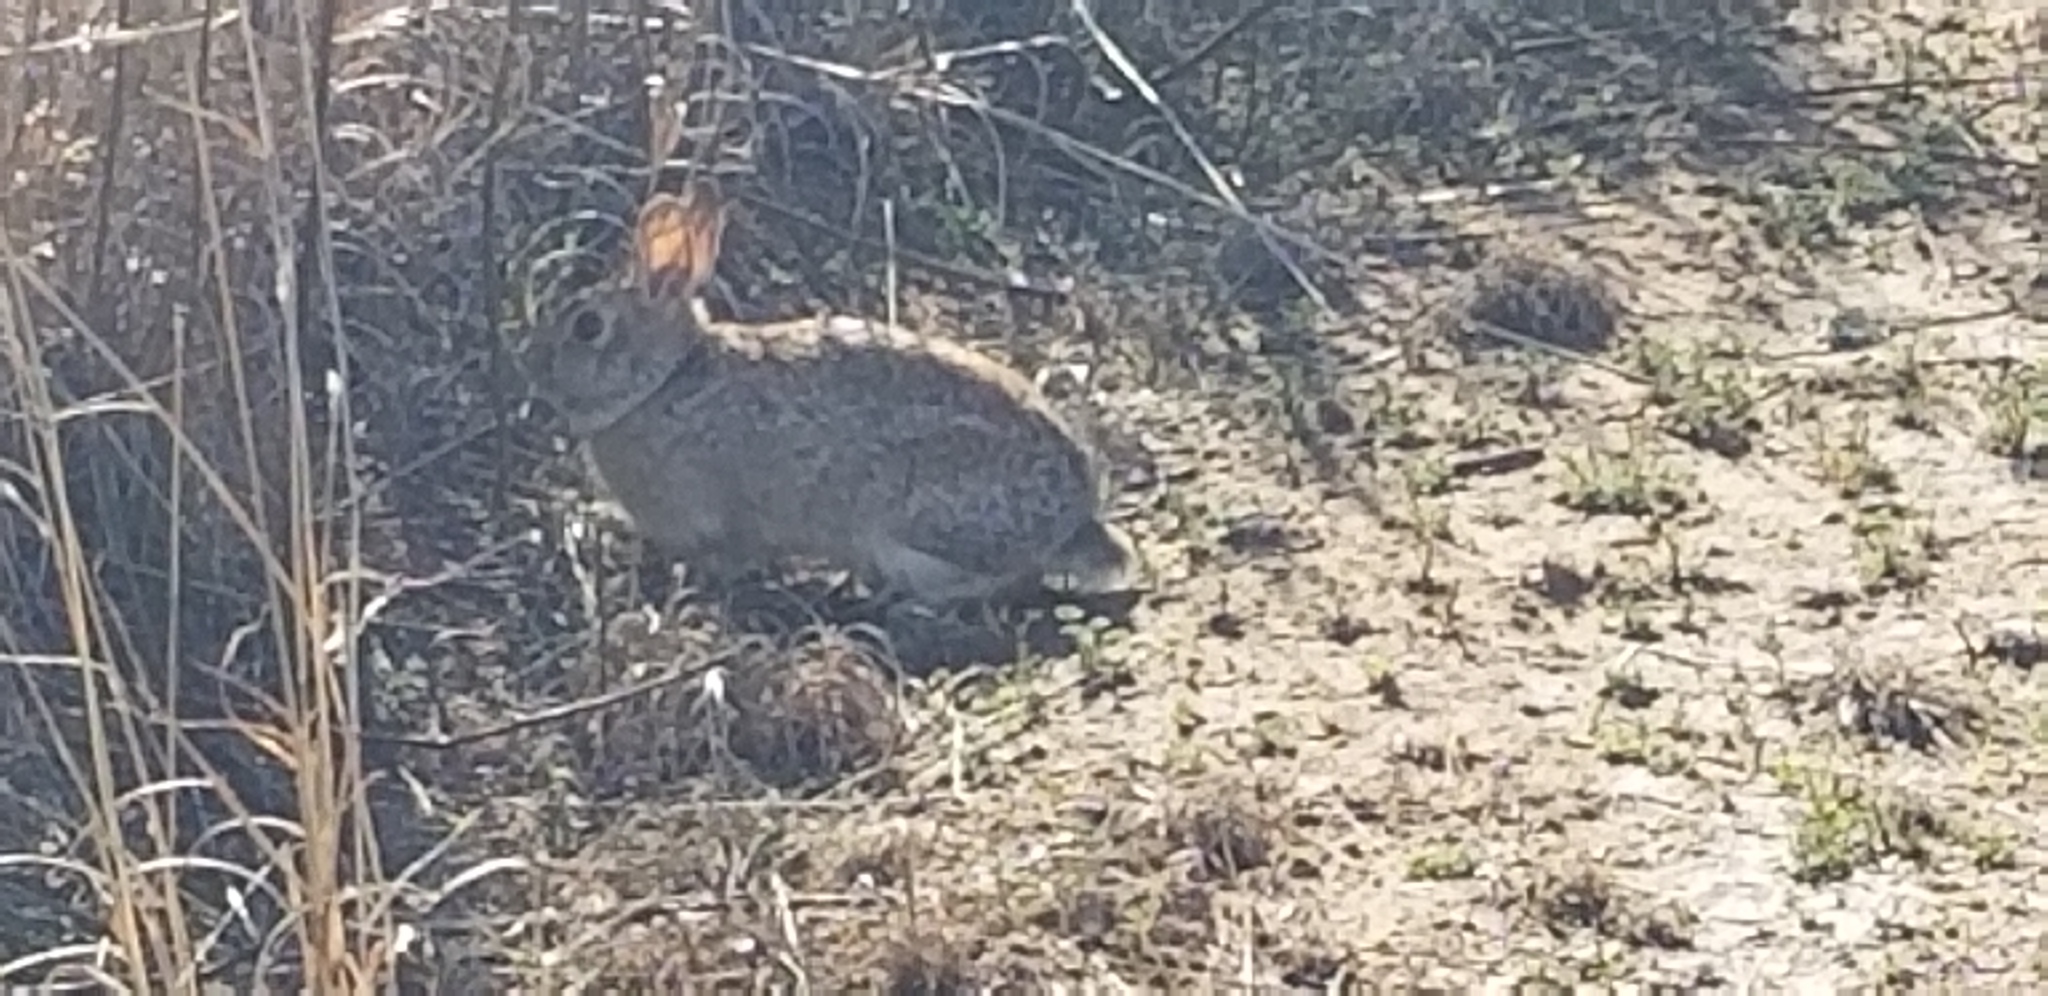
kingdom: Animalia
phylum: Chordata
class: Mammalia
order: Lagomorpha
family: Leporidae
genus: Sylvilagus
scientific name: Sylvilagus floridanus
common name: Eastern cottontail
